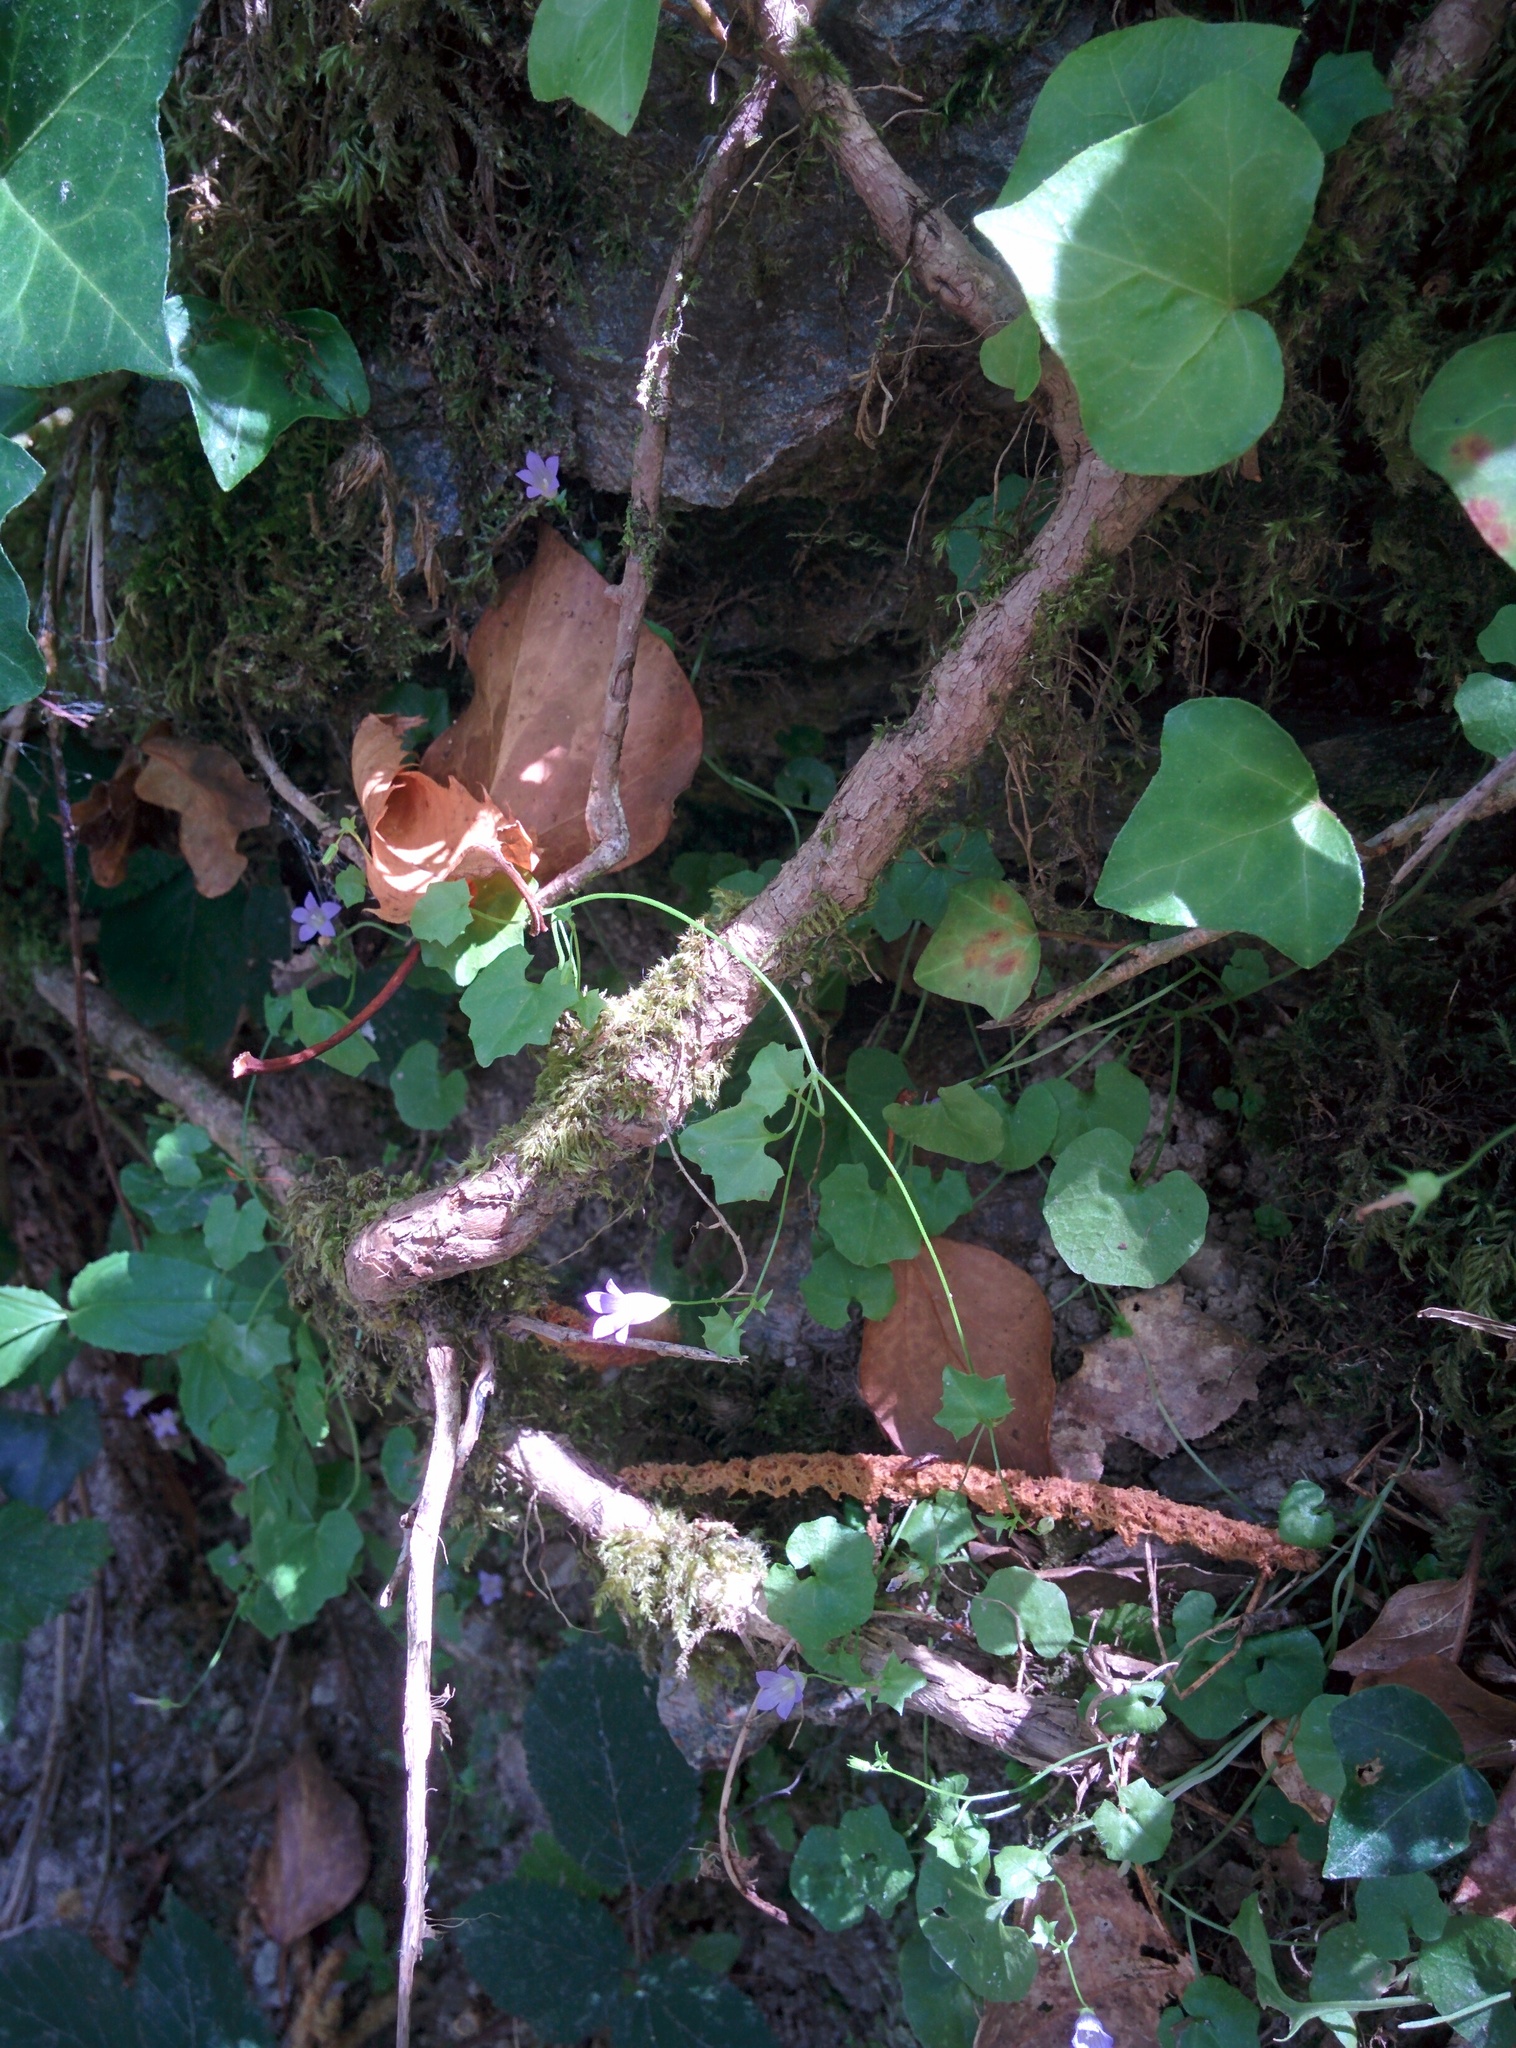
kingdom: Plantae
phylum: Tracheophyta
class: Magnoliopsida
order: Asterales
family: Campanulaceae
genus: Hesperocodon
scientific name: Hesperocodon hederaceus
